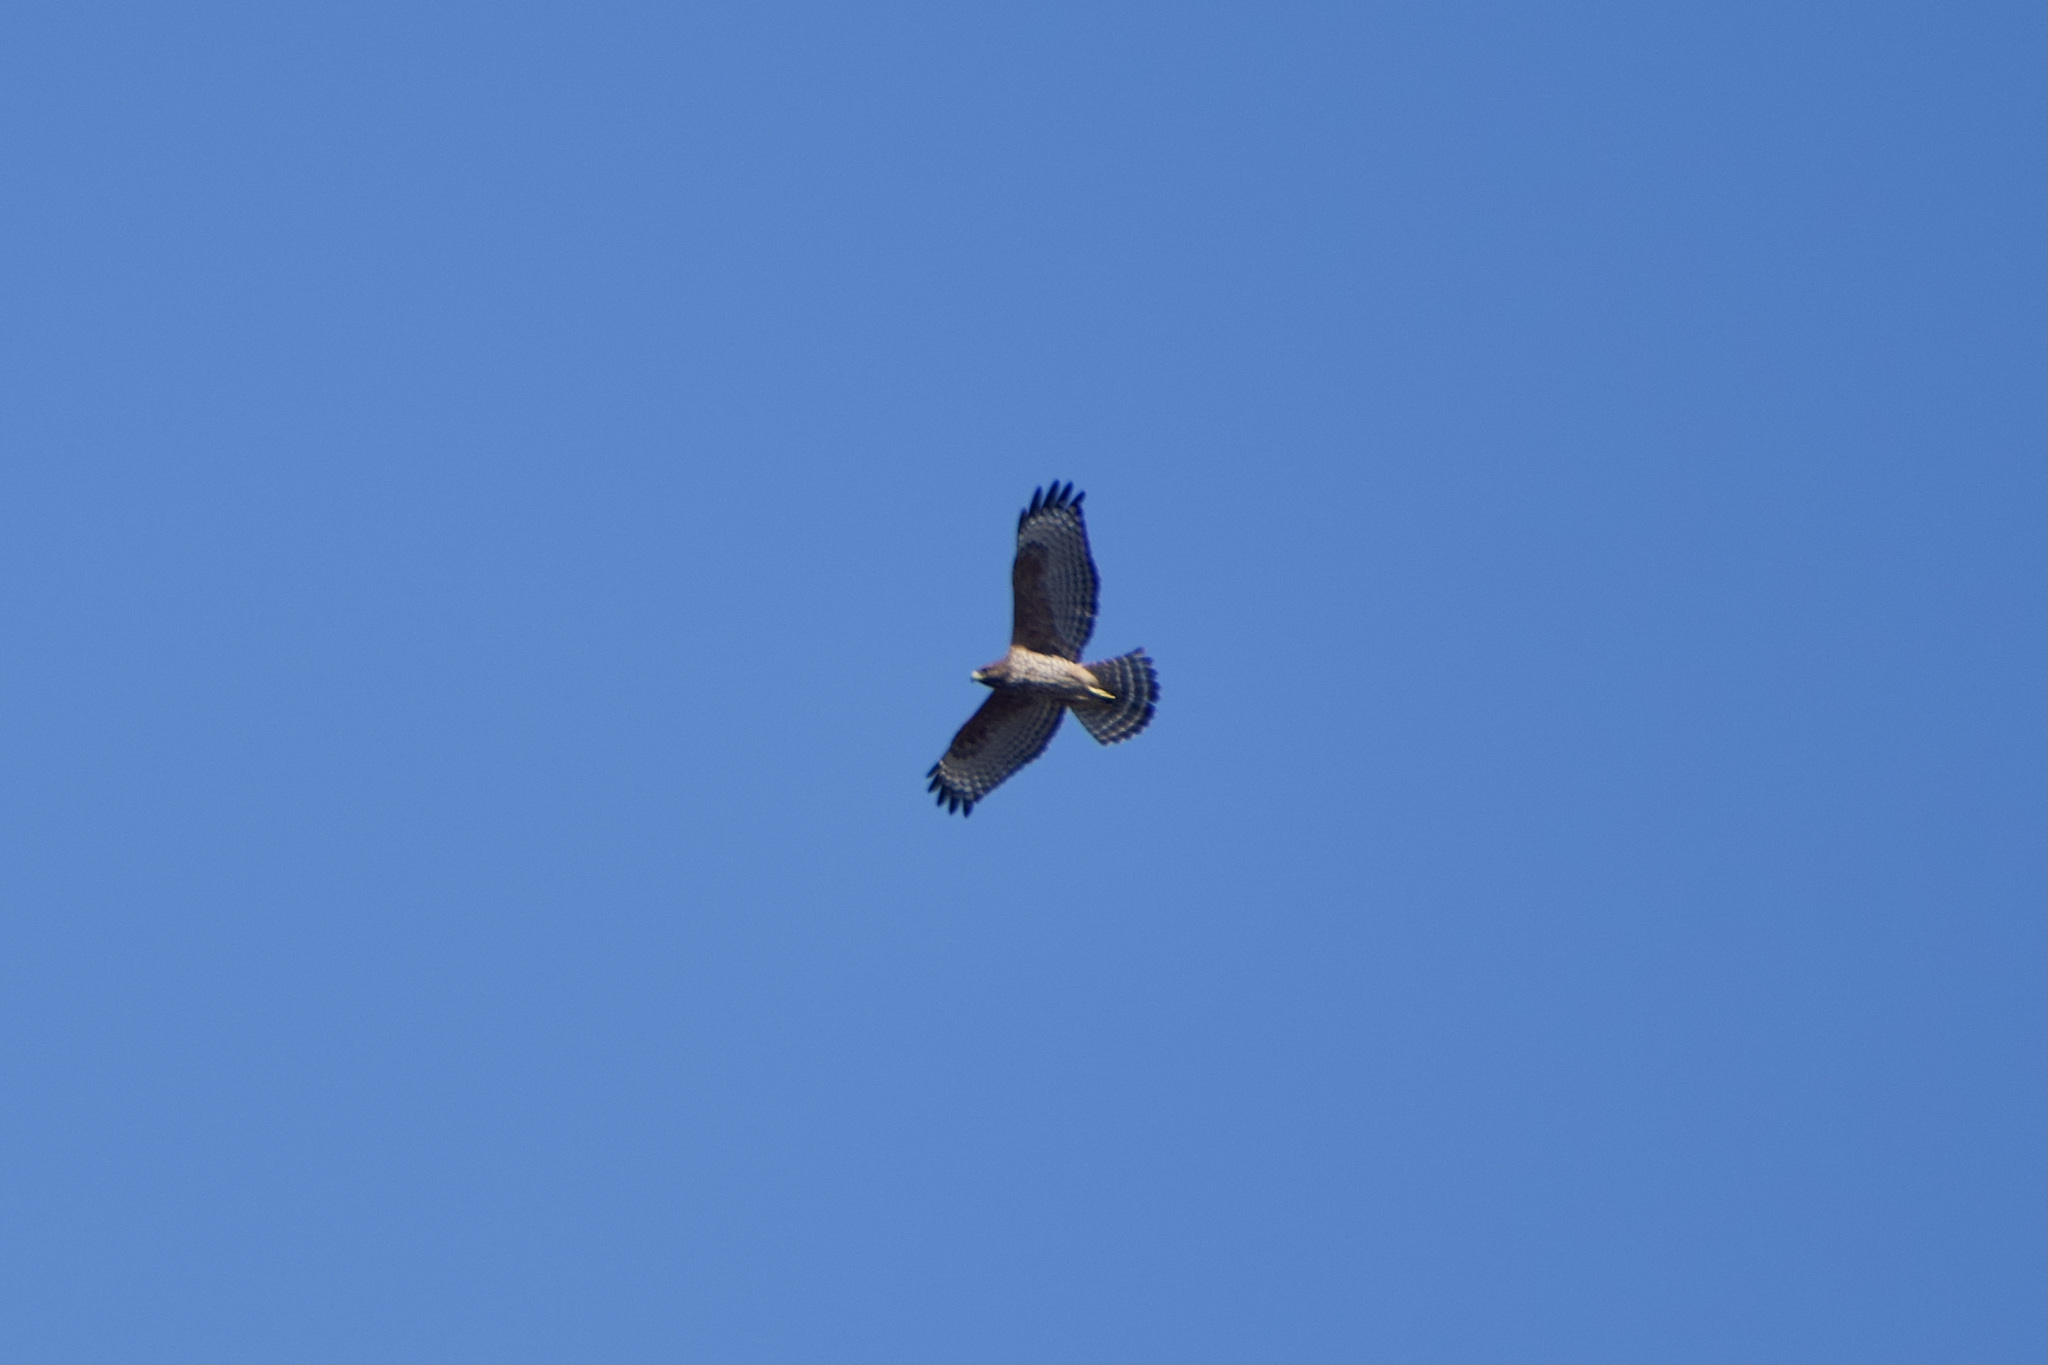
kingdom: Animalia
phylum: Chordata
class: Aves
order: Accipitriformes
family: Accipitridae
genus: Buteo
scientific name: Buteo lineatus
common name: Red-shouldered hawk
